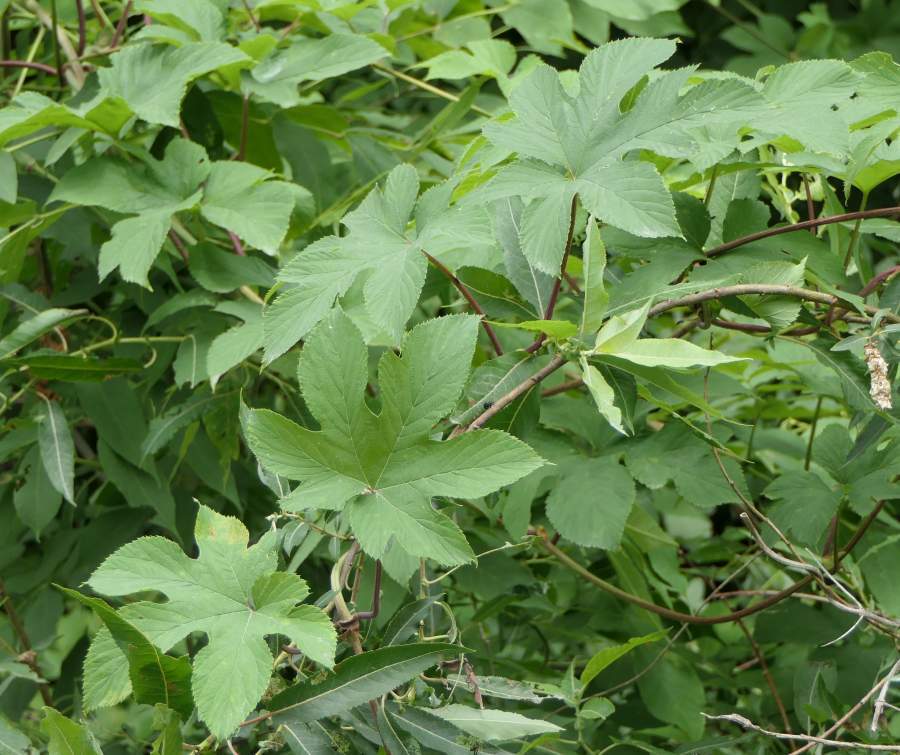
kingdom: Plantae
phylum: Tracheophyta
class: Magnoliopsida
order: Rosales
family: Cannabaceae
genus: Humulus
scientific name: Humulus lupulus
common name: Hop
